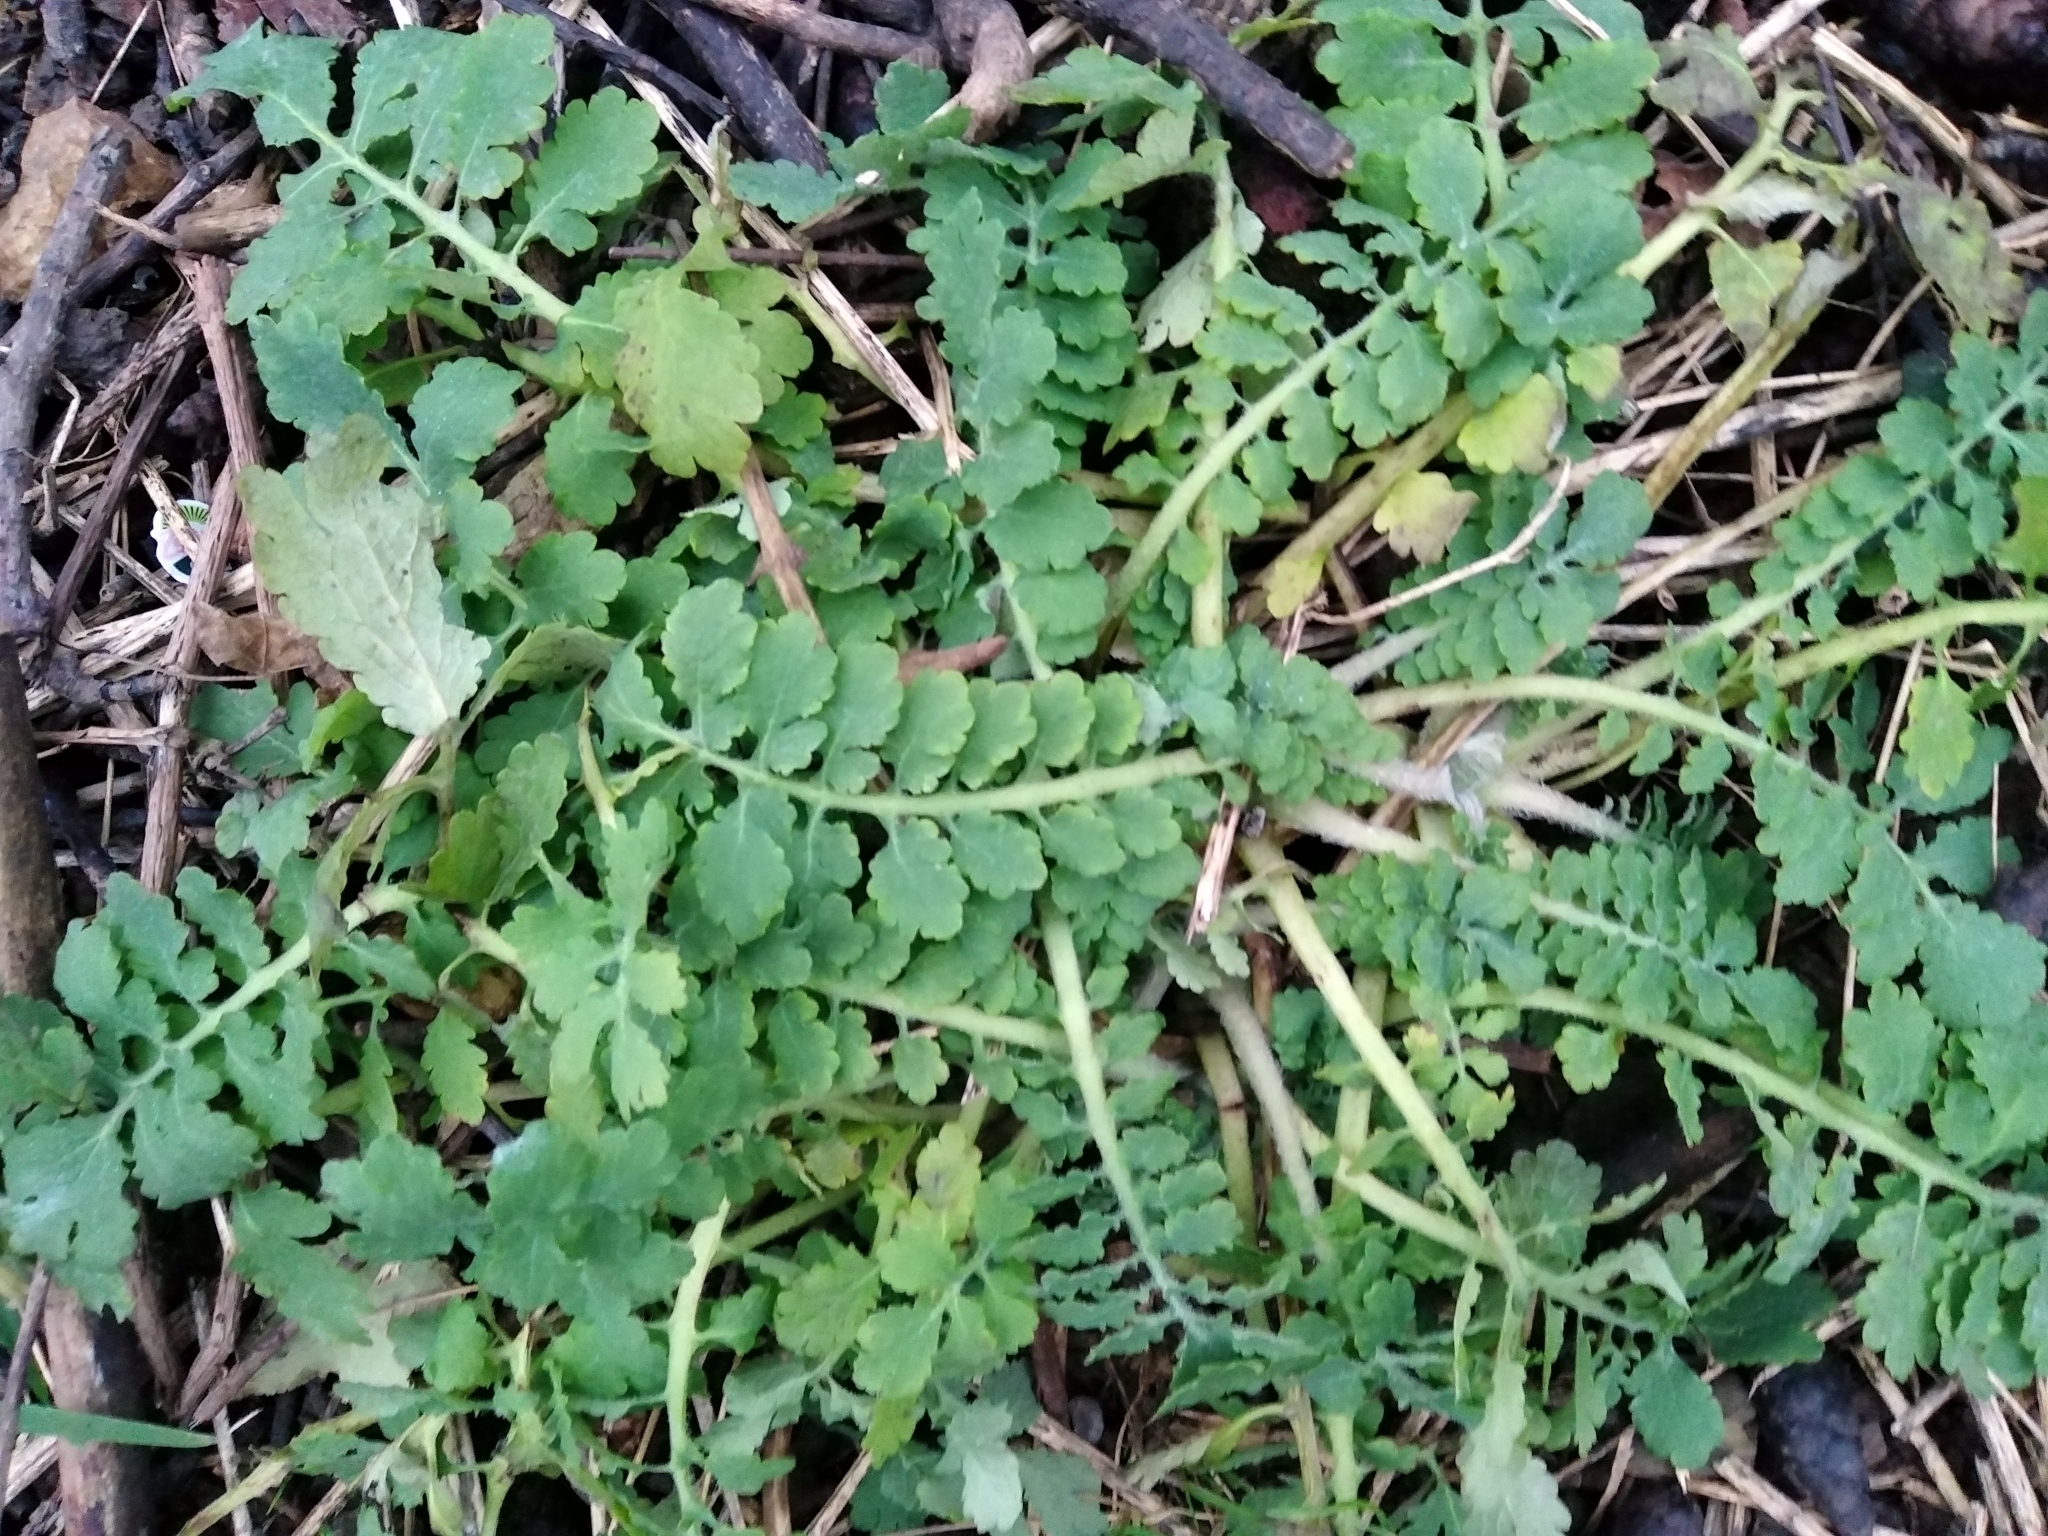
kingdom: Plantae
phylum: Tracheophyta
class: Magnoliopsida
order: Ranunculales
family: Papaveraceae
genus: Chelidonium
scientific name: Chelidonium majus
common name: Greater celandine
